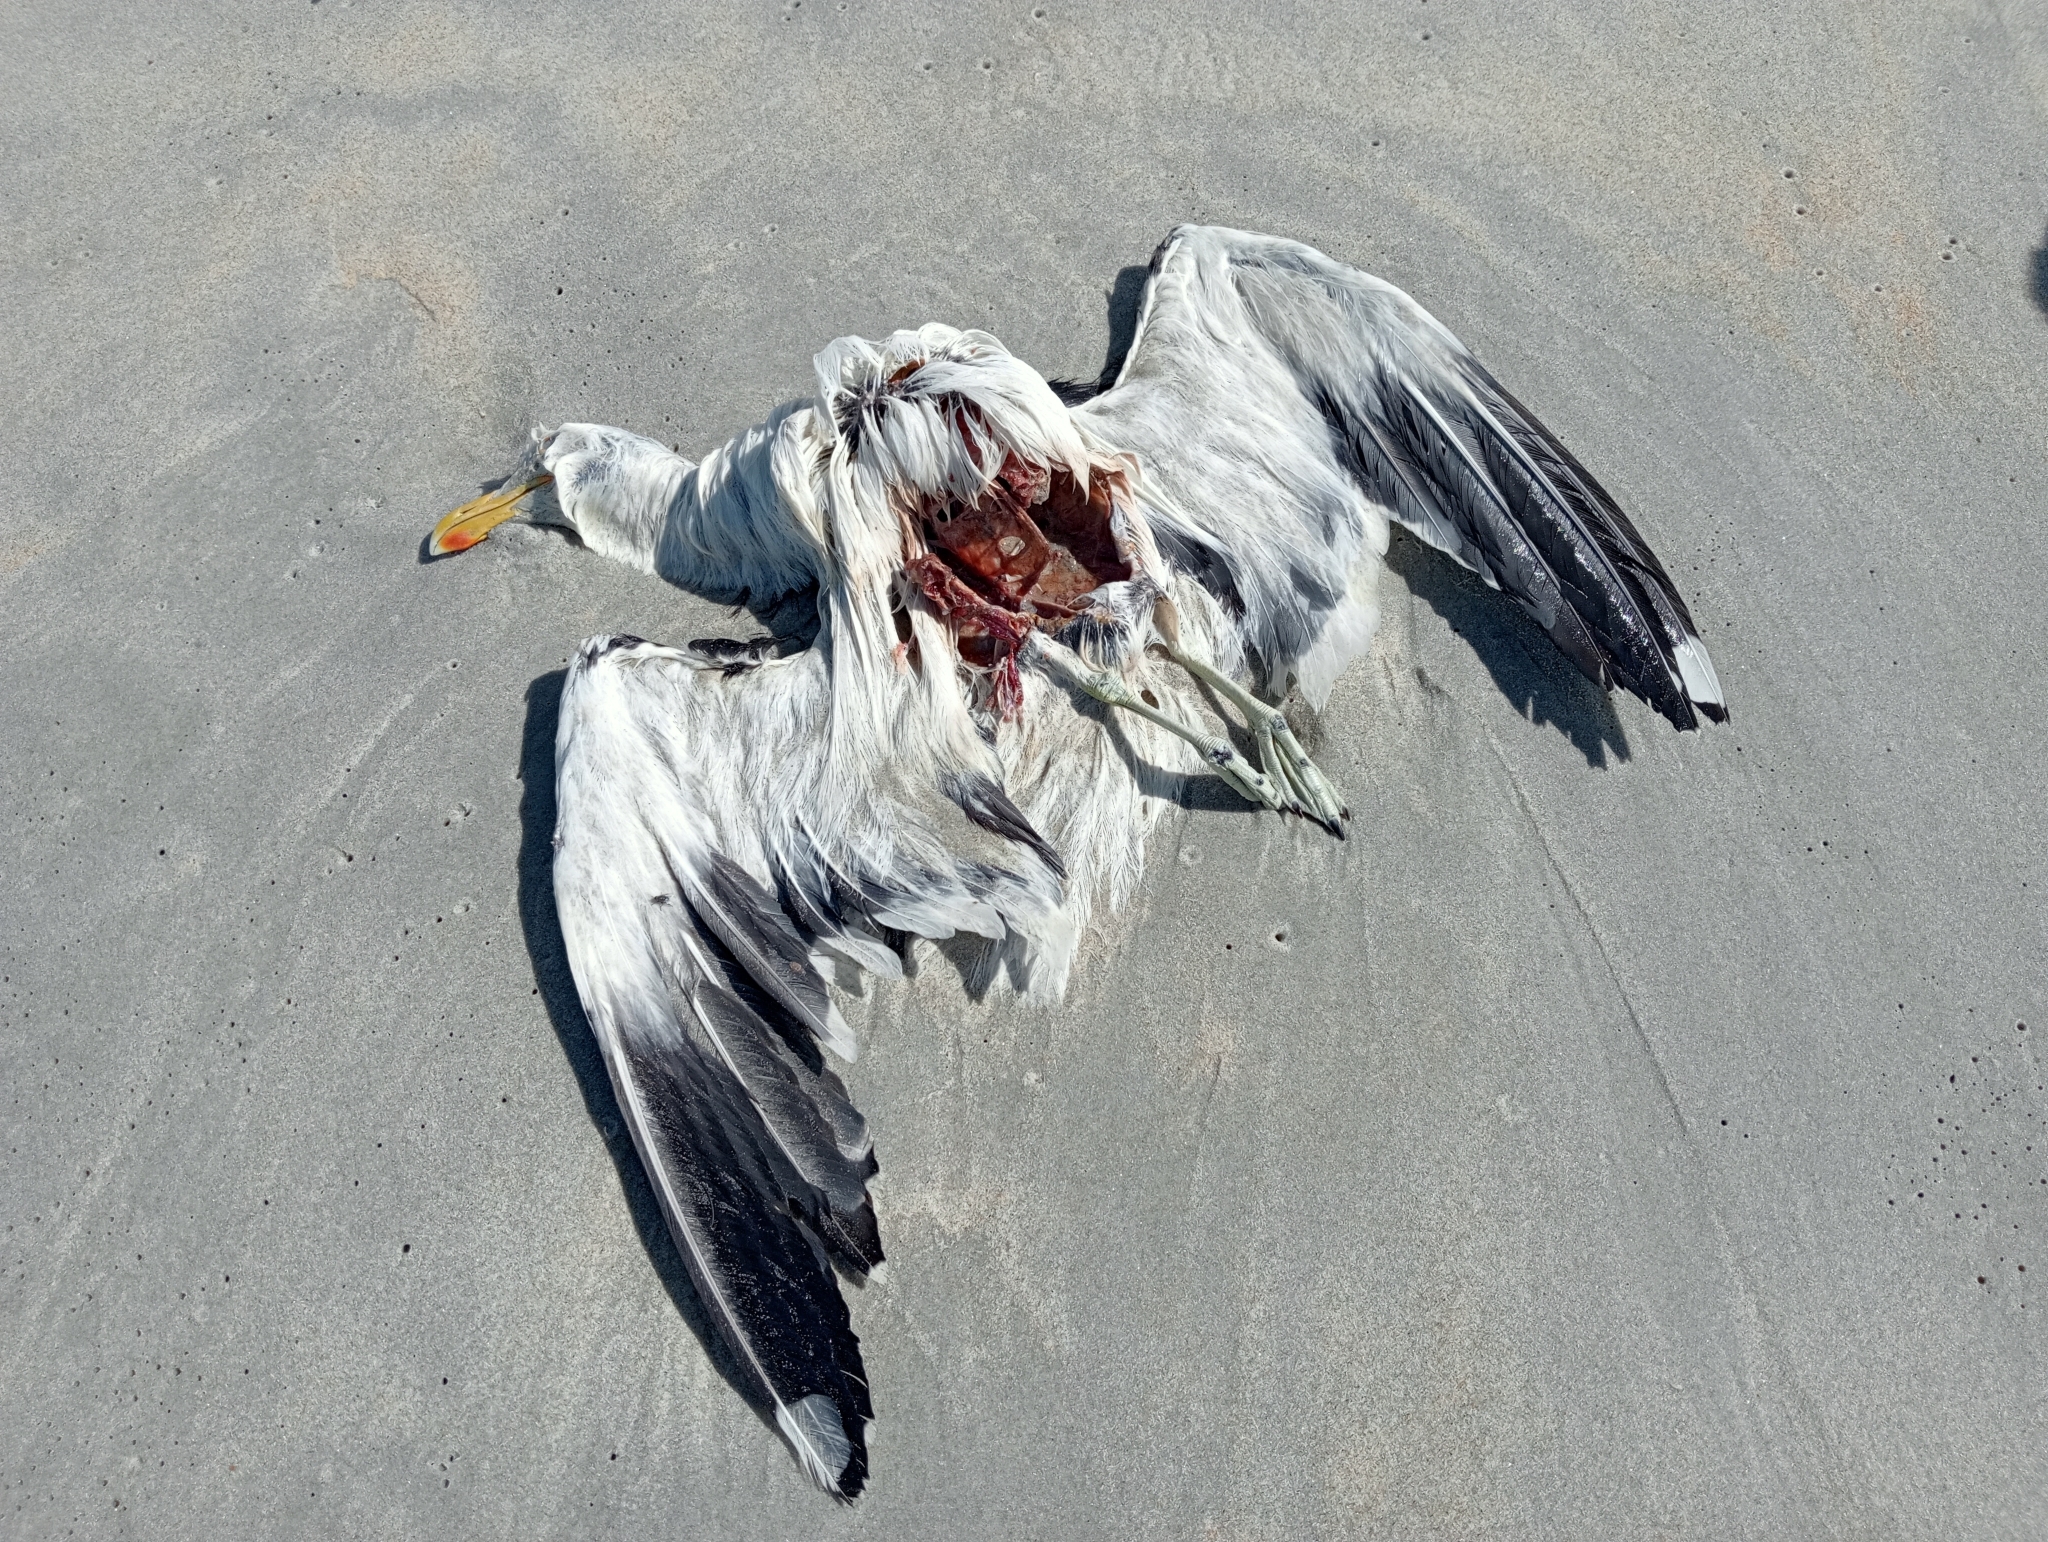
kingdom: Animalia
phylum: Chordata
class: Aves
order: Charadriiformes
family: Laridae
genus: Larus
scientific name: Larus dominicanus
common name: Kelp gull
